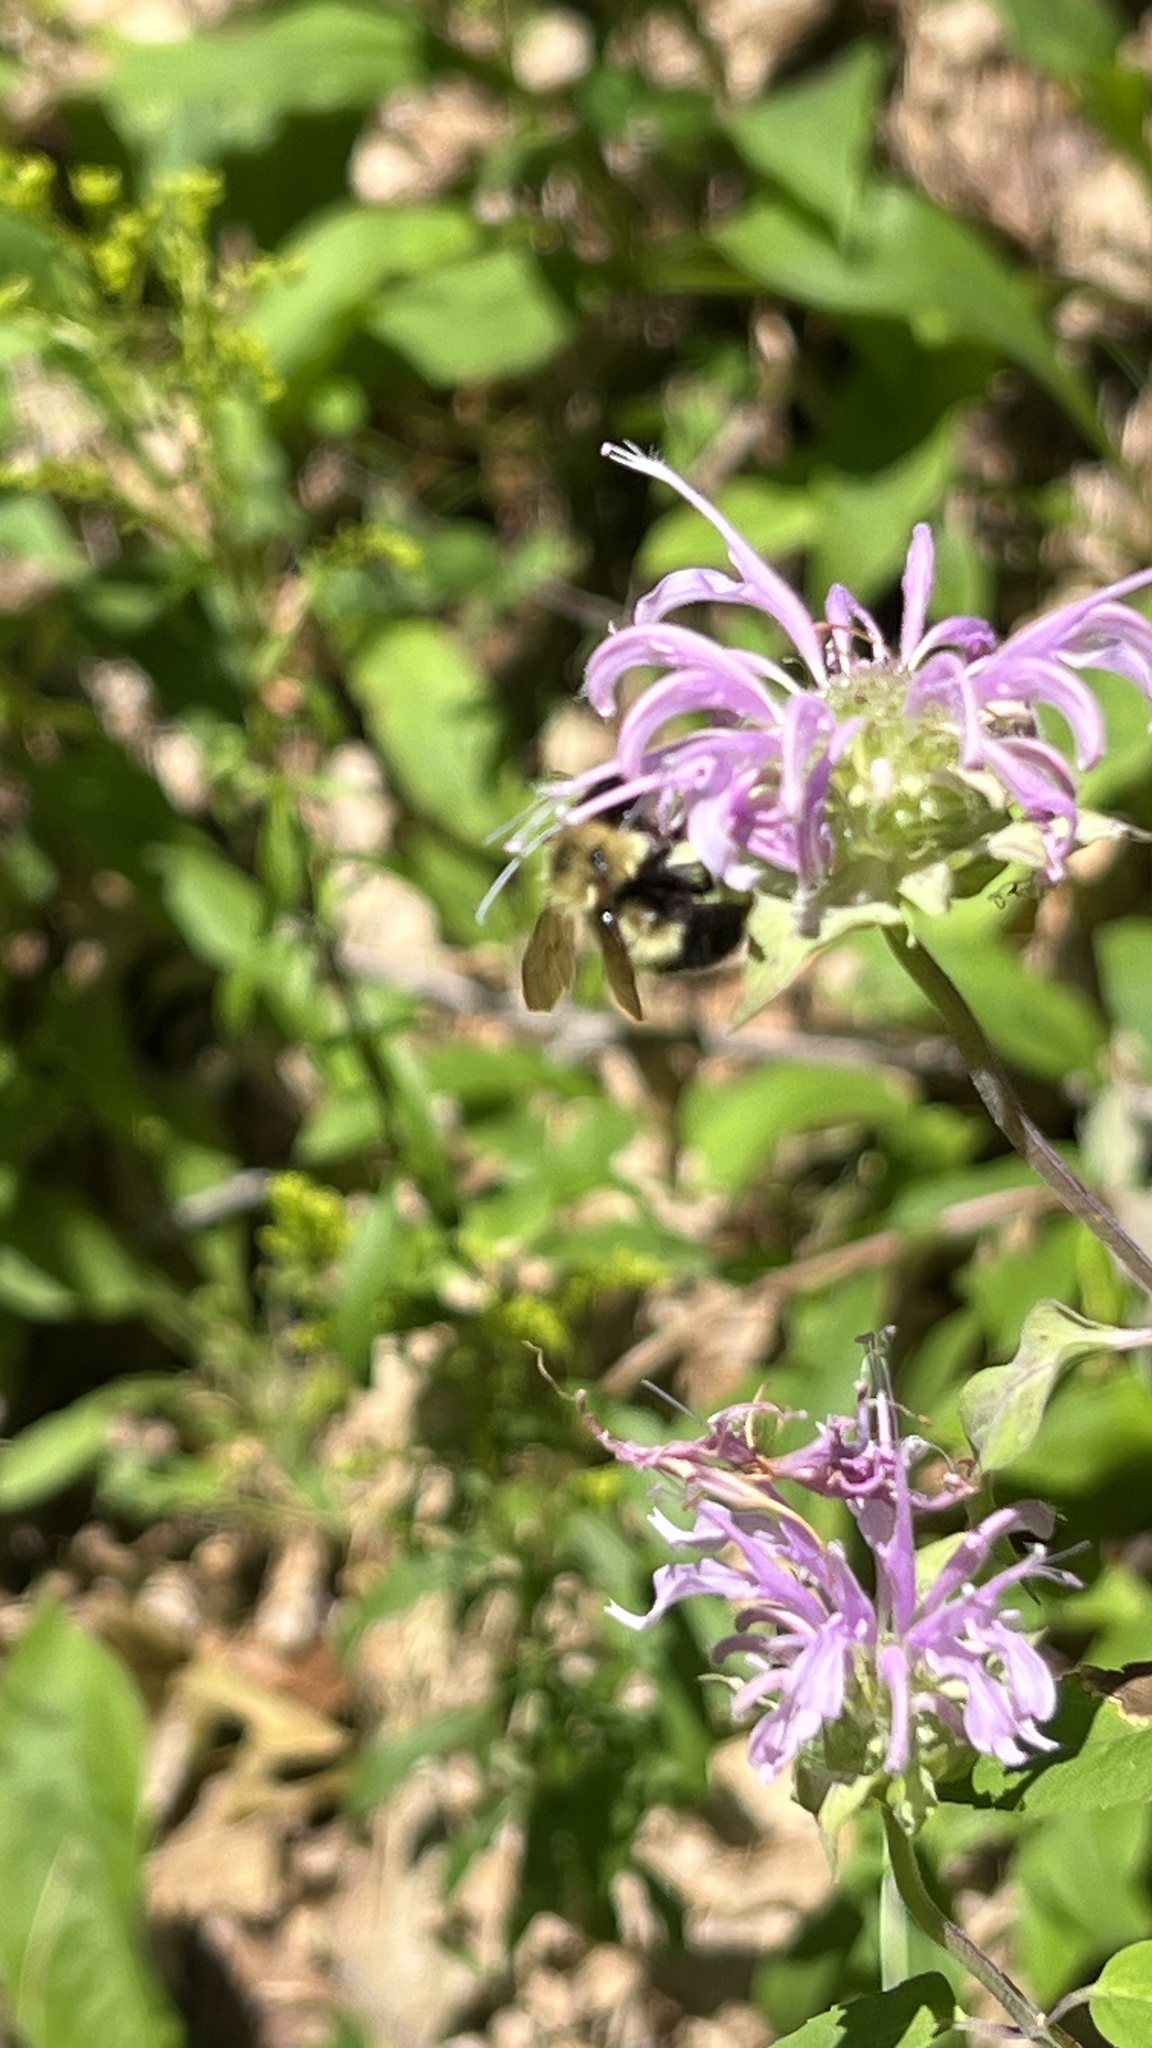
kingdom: Animalia
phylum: Arthropoda
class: Insecta
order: Hymenoptera
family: Apidae
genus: Pyrobombus
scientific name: Pyrobombus
